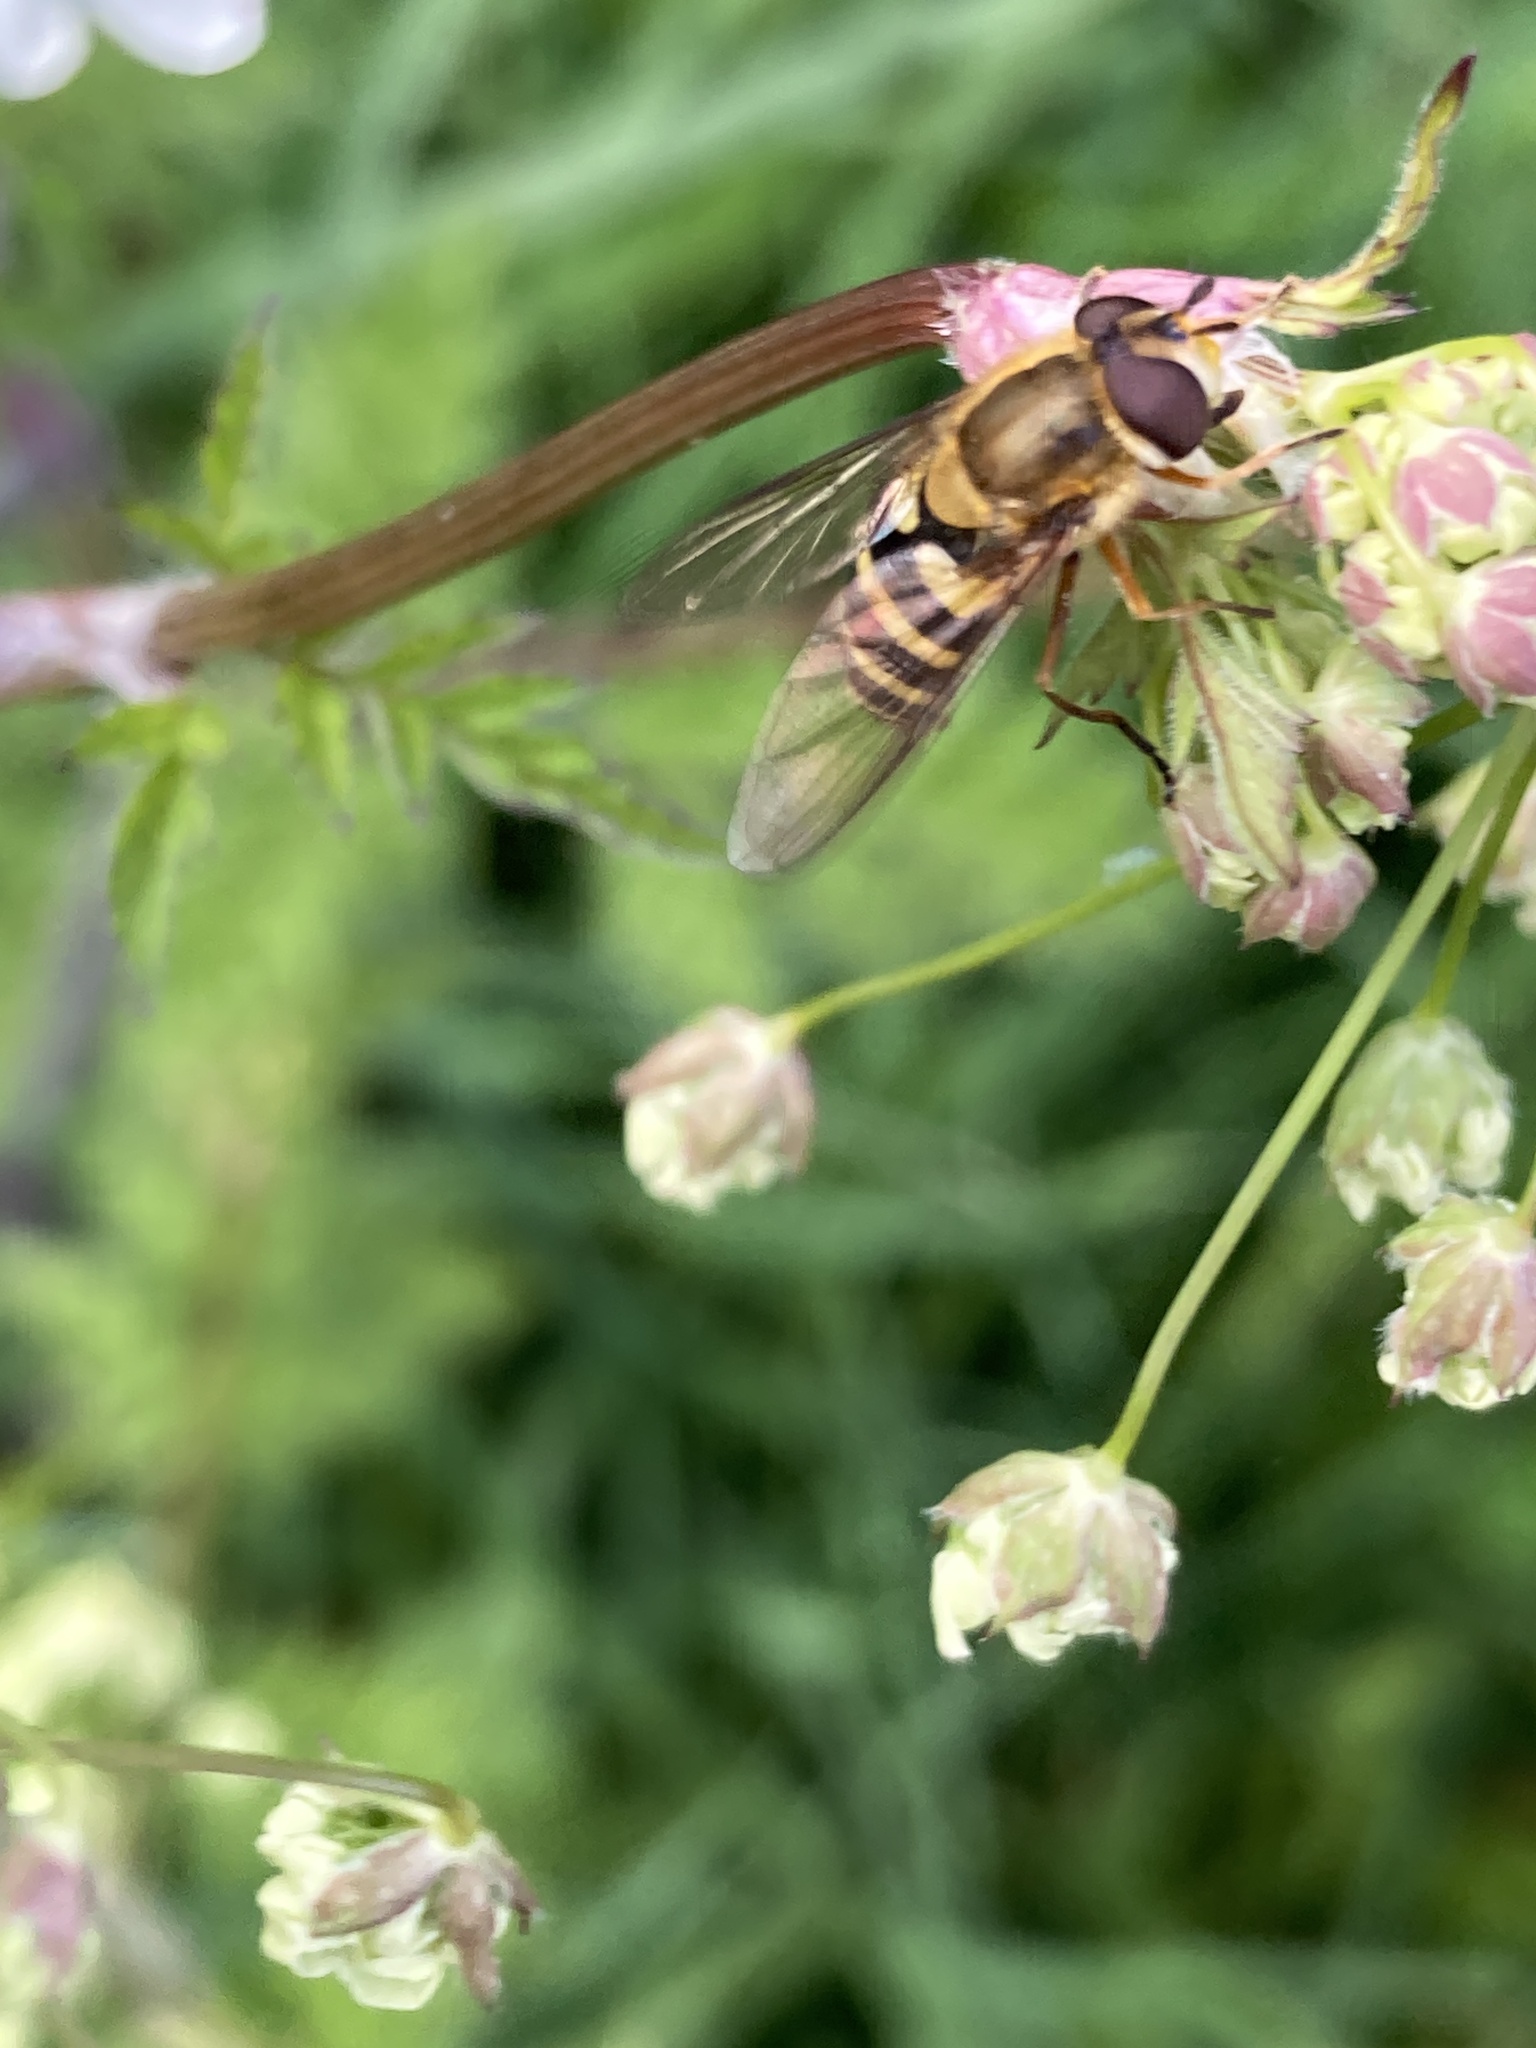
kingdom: Animalia
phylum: Arthropoda
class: Insecta
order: Diptera
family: Syrphidae
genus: Syrphus
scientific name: Syrphus ribesii
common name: Common flower fly
